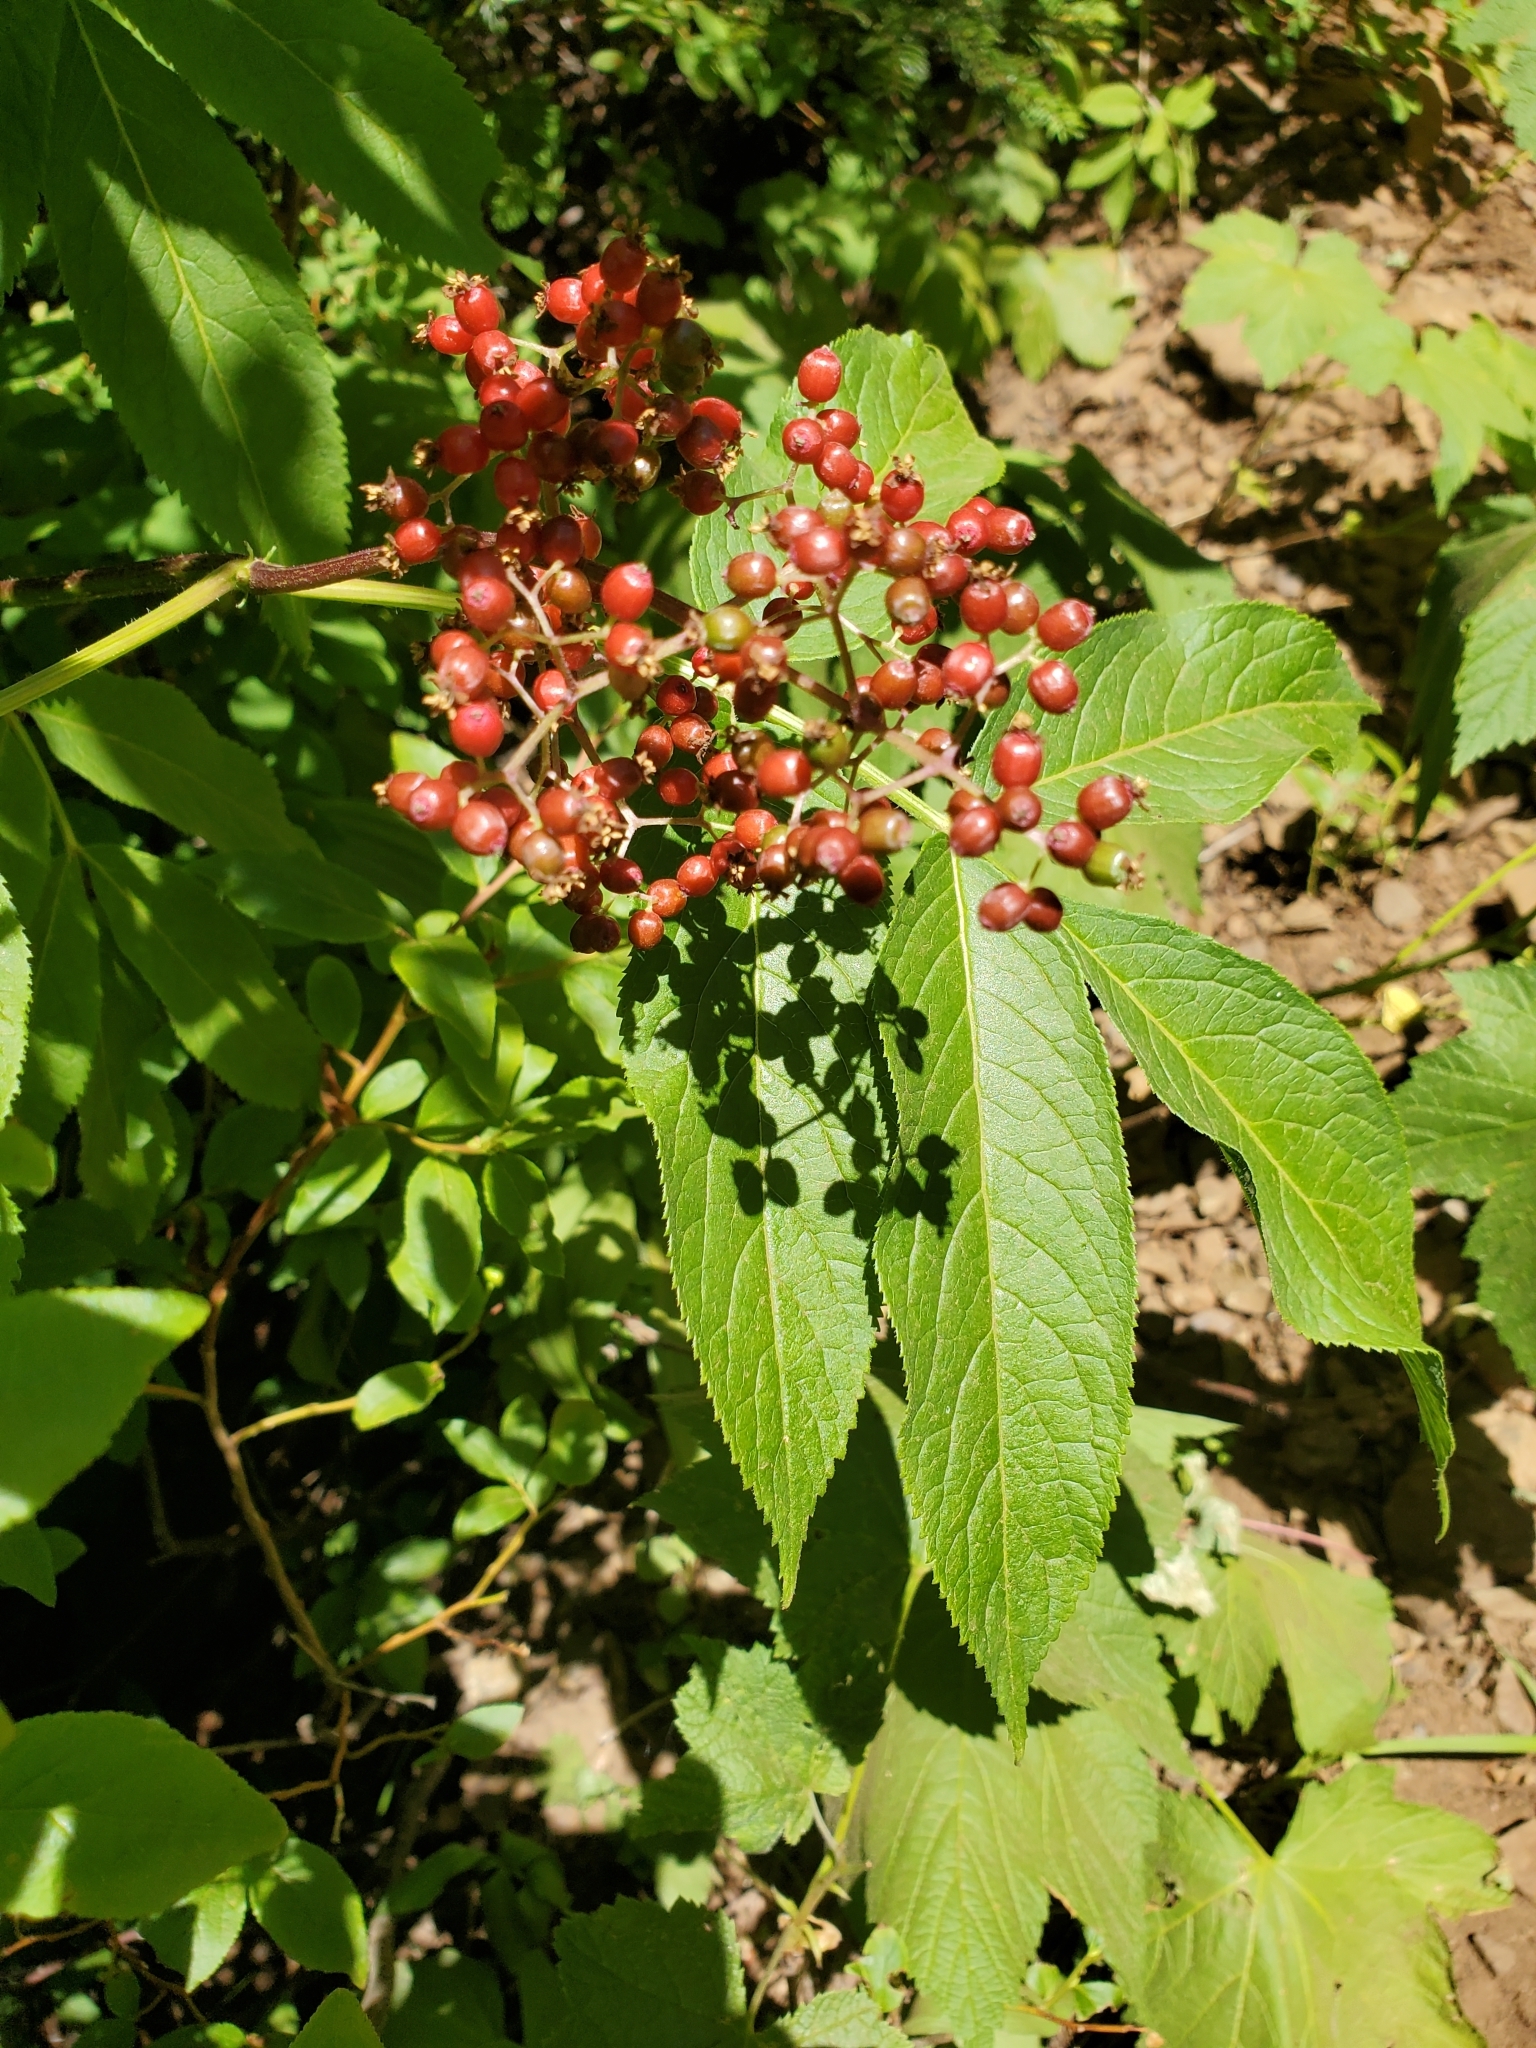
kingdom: Plantae
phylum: Tracheophyta
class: Magnoliopsida
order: Dipsacales
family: Viburnaceae
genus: Sambucus
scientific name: Sambucus racemosa
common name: Red-berried elder
